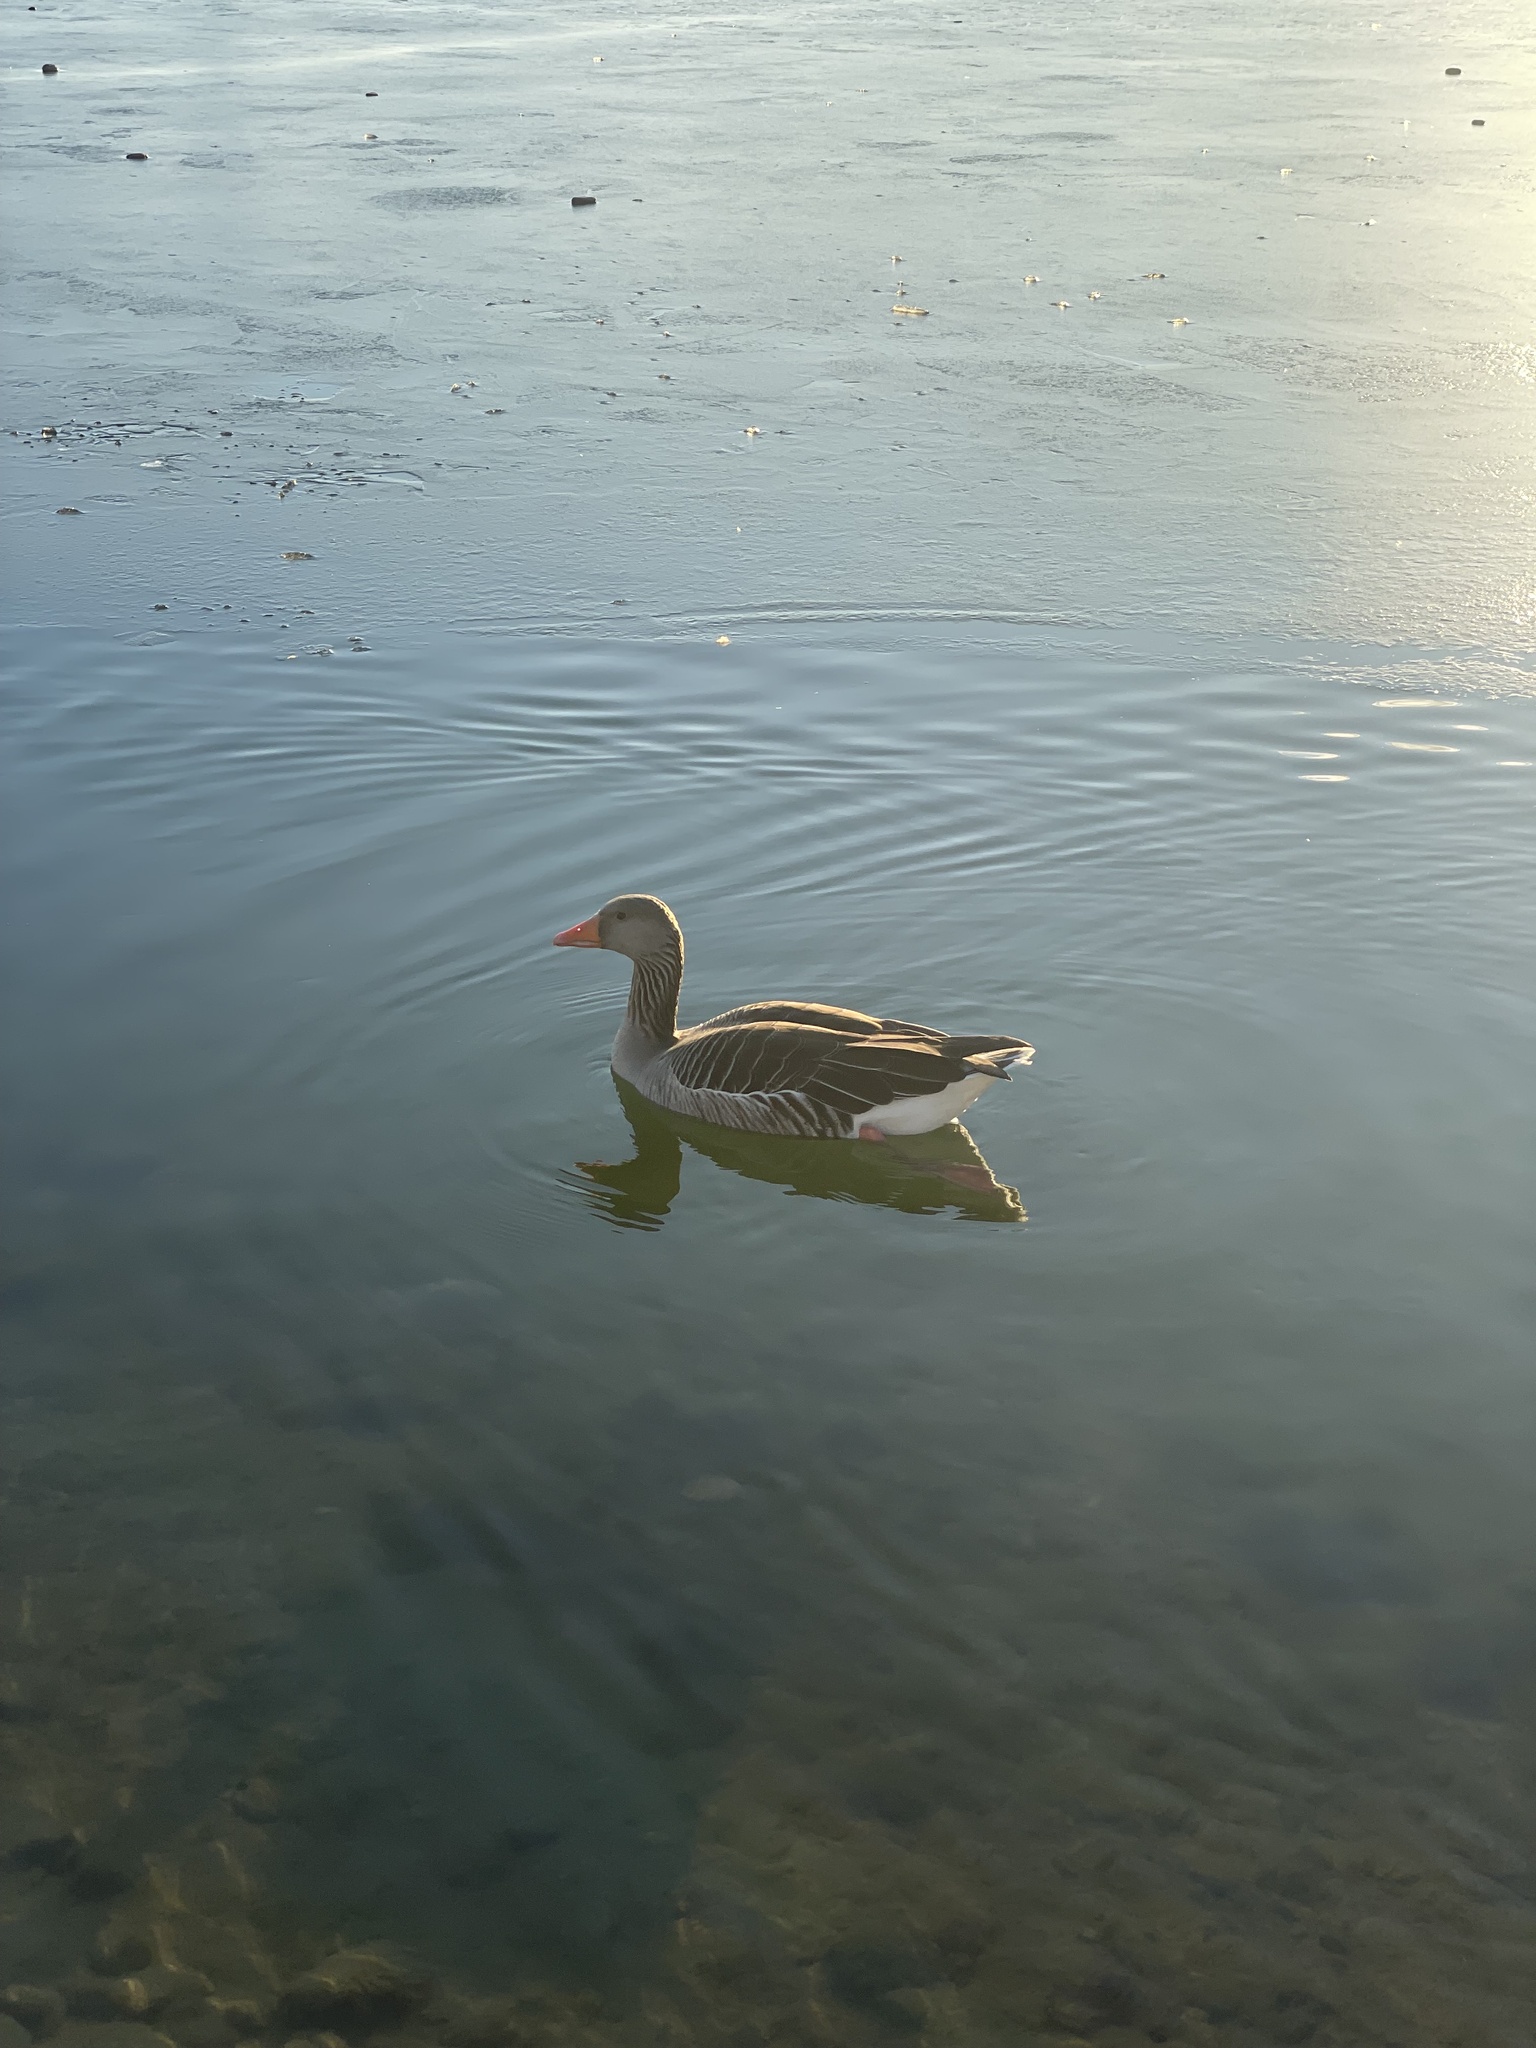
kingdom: Animalia
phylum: Chordata
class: Aves
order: Anseriformes
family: Anatidae
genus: Anser
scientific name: Anser anser
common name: Greylag goose
